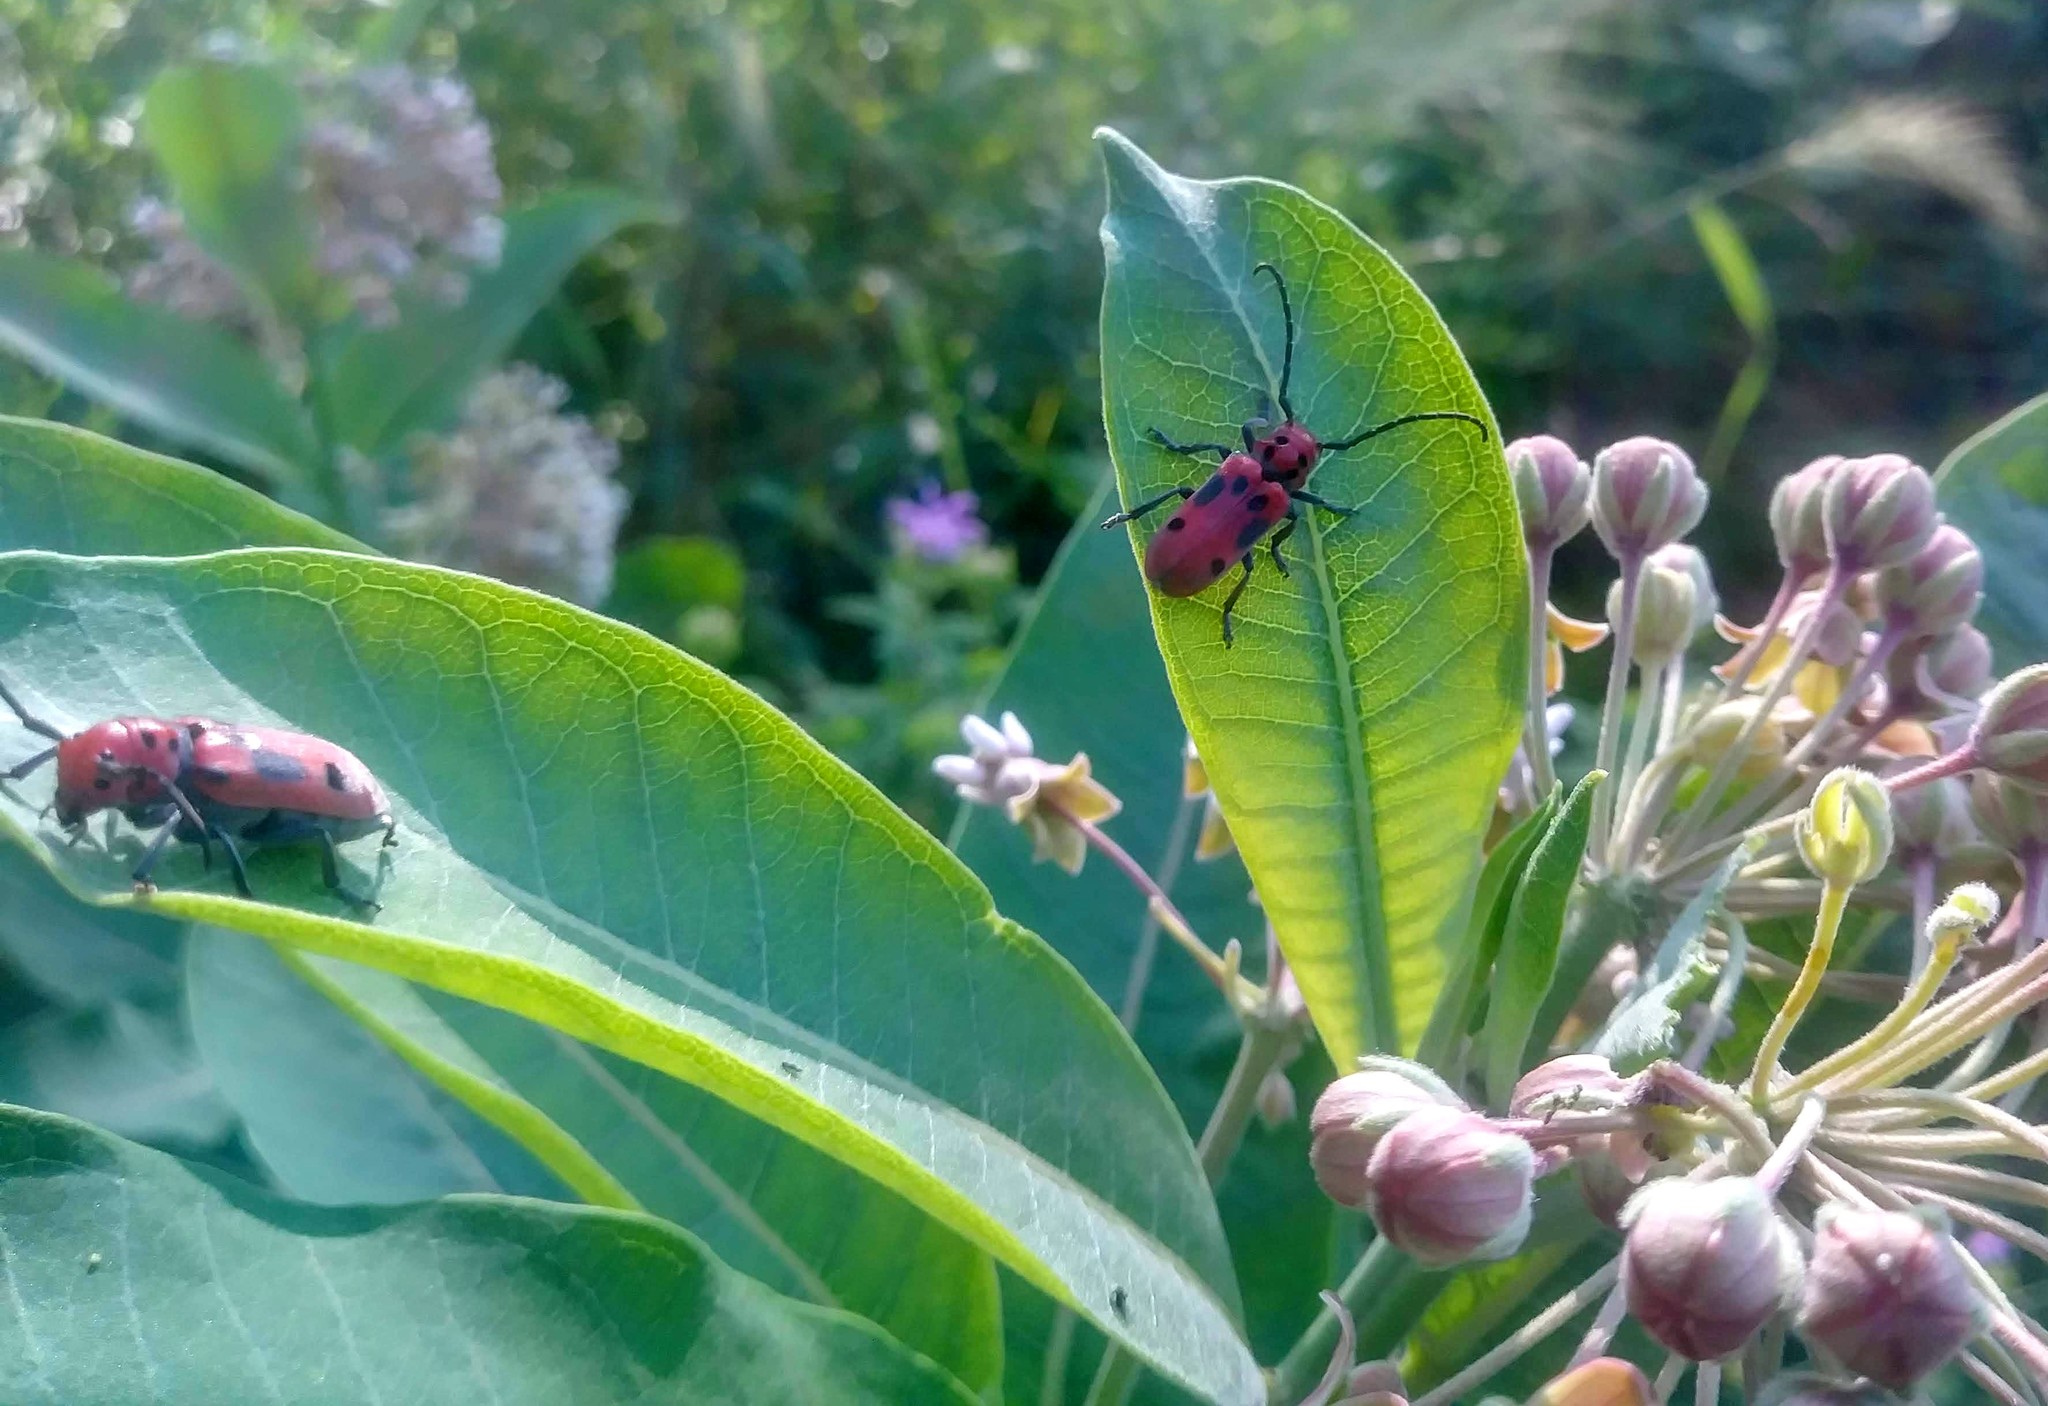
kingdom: Animalia
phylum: Arthropoda
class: Insecta
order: Coleoptera
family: Cerambycidae
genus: Tetraopes
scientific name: Tetraopes tetrophthalmus
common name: Red milkweed beetle
